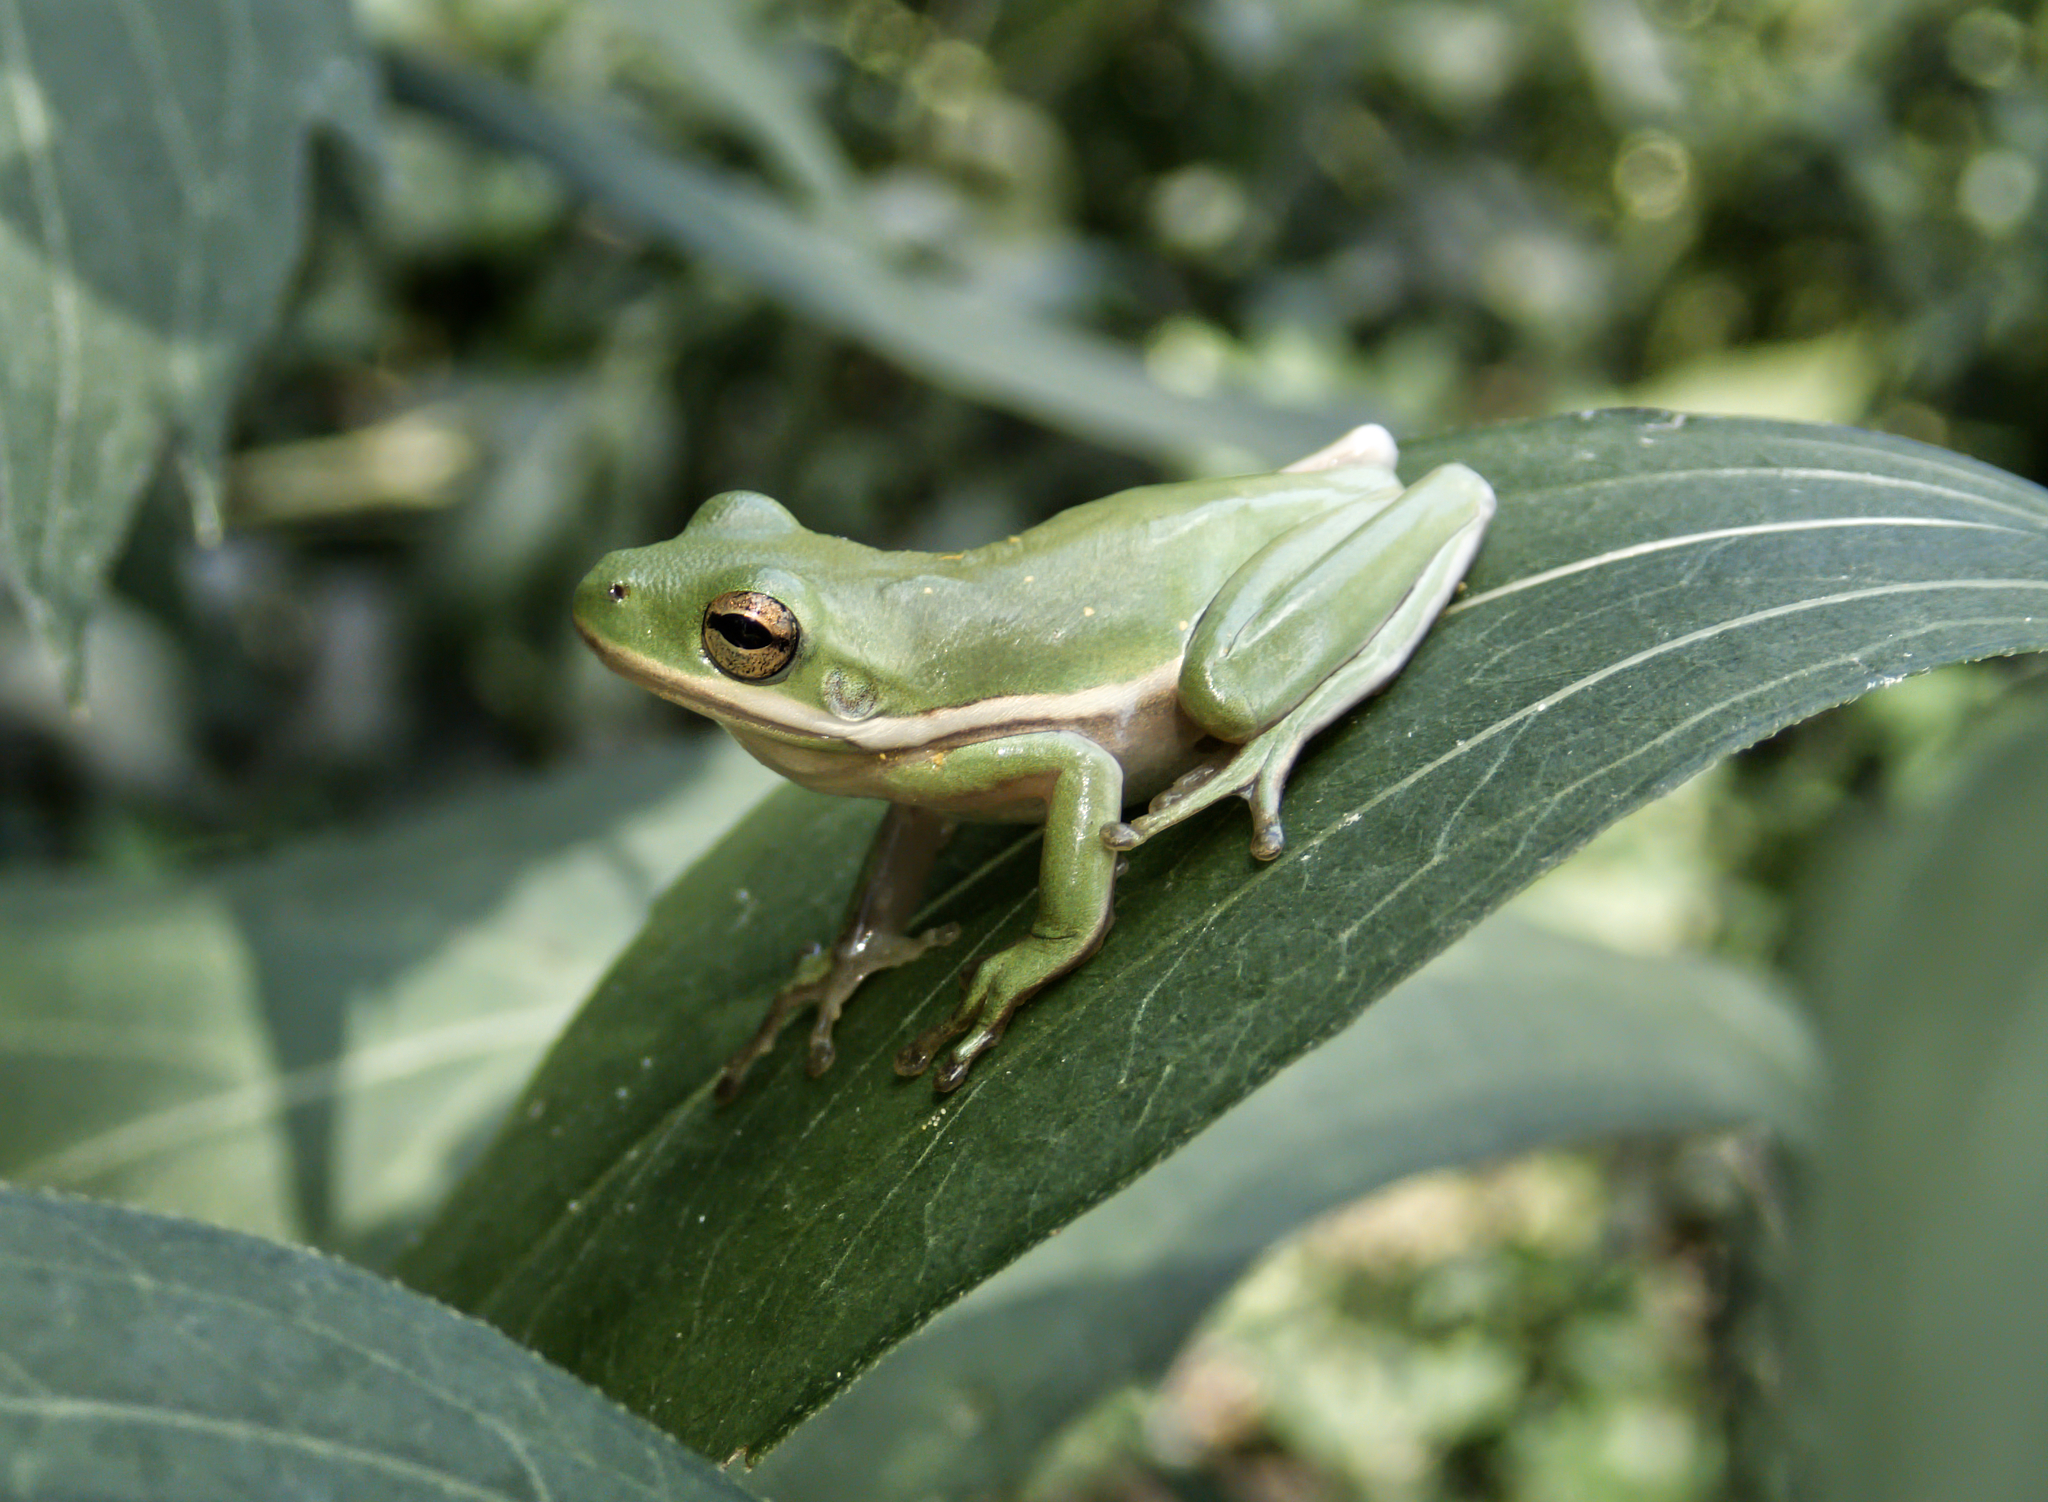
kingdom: Animalia
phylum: Chordata
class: Amphibia
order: Anura
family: Hylidae
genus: Dryophytes
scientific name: Dryophytes cinereus
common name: Green treefrog
